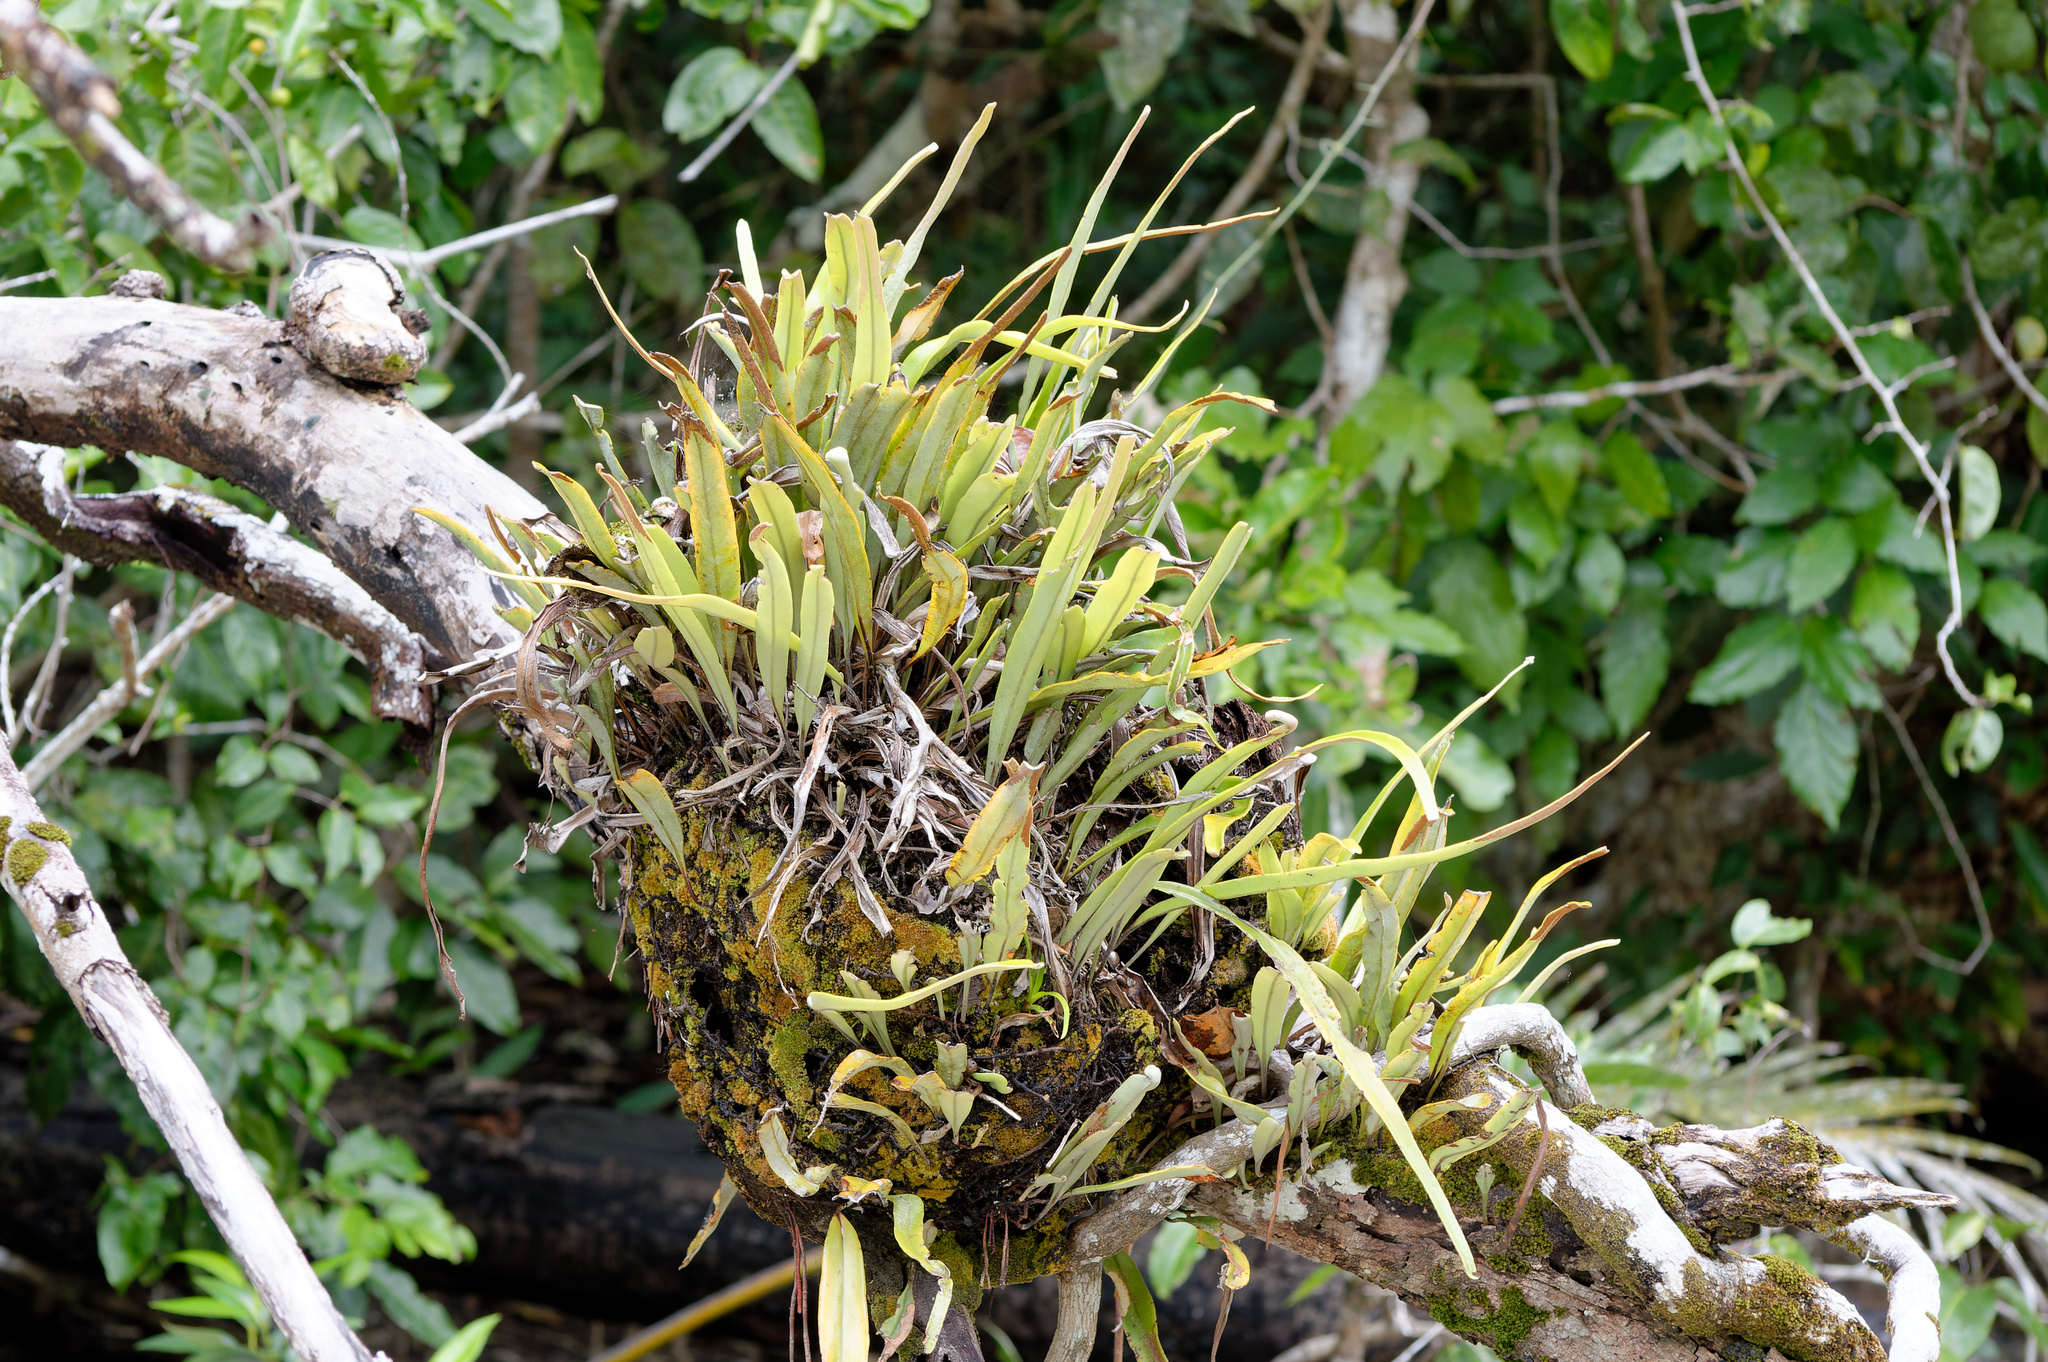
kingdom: Plantae
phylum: Tracheophyta
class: Polypodiopsida
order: Polypodiales
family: Polypodiaceae
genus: Pyrrosia
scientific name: Pyrrosia longifolia
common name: Long-leaved felt fern
